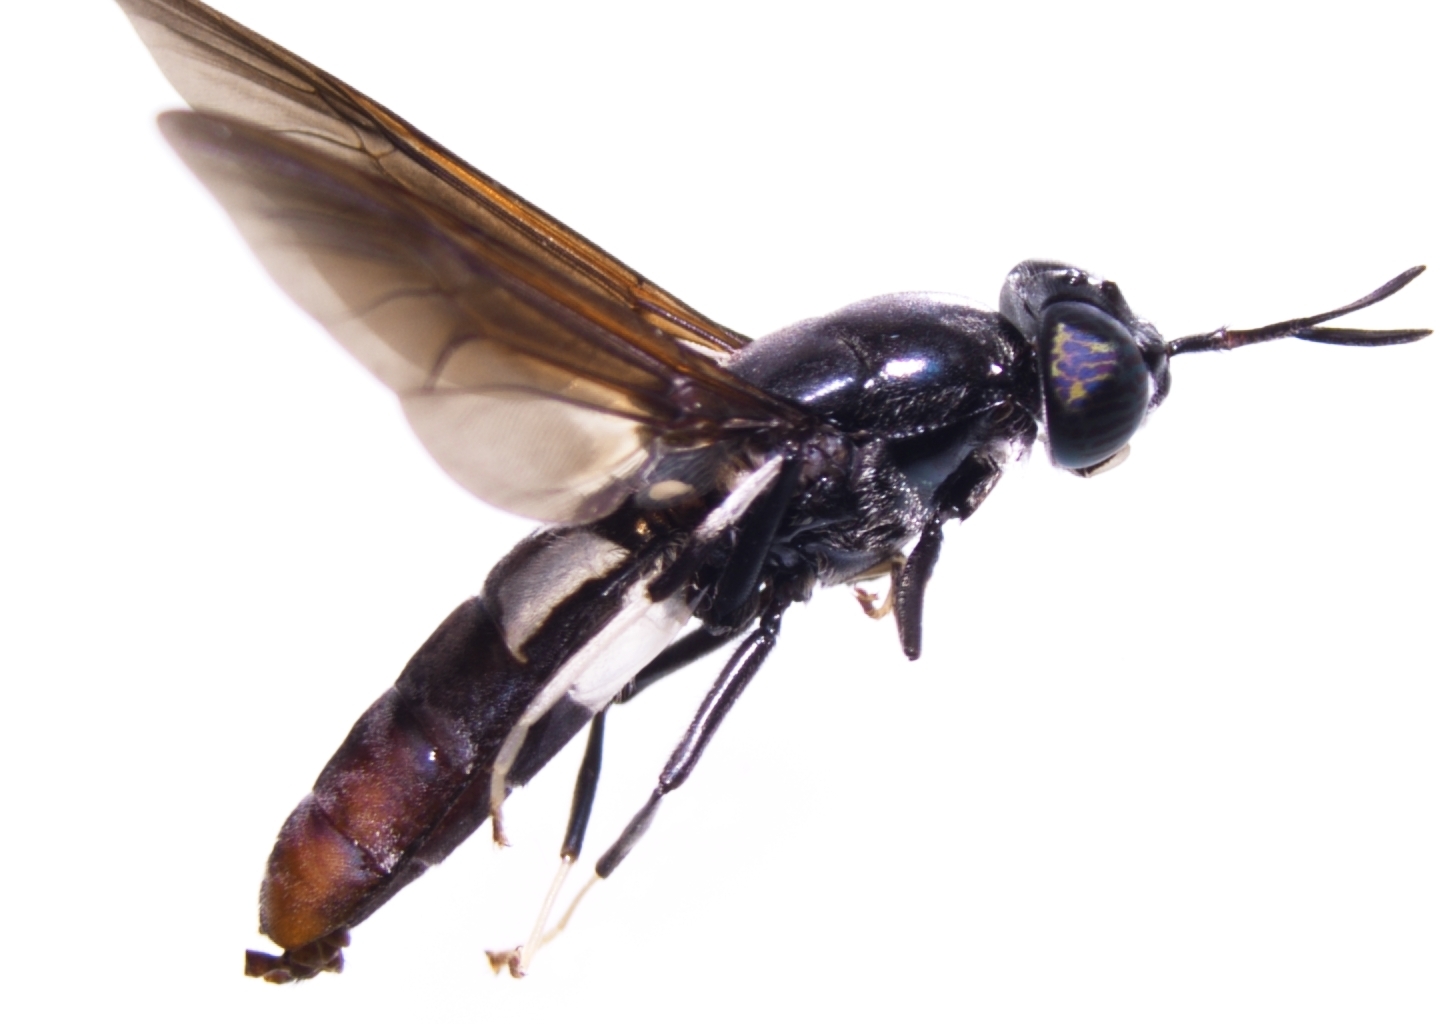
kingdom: Animalia
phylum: Arthropoda
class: Insecta
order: Diptera
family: Stratiomyidae
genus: Hermetia
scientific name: Hermetia illucens
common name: Black soldier fly
